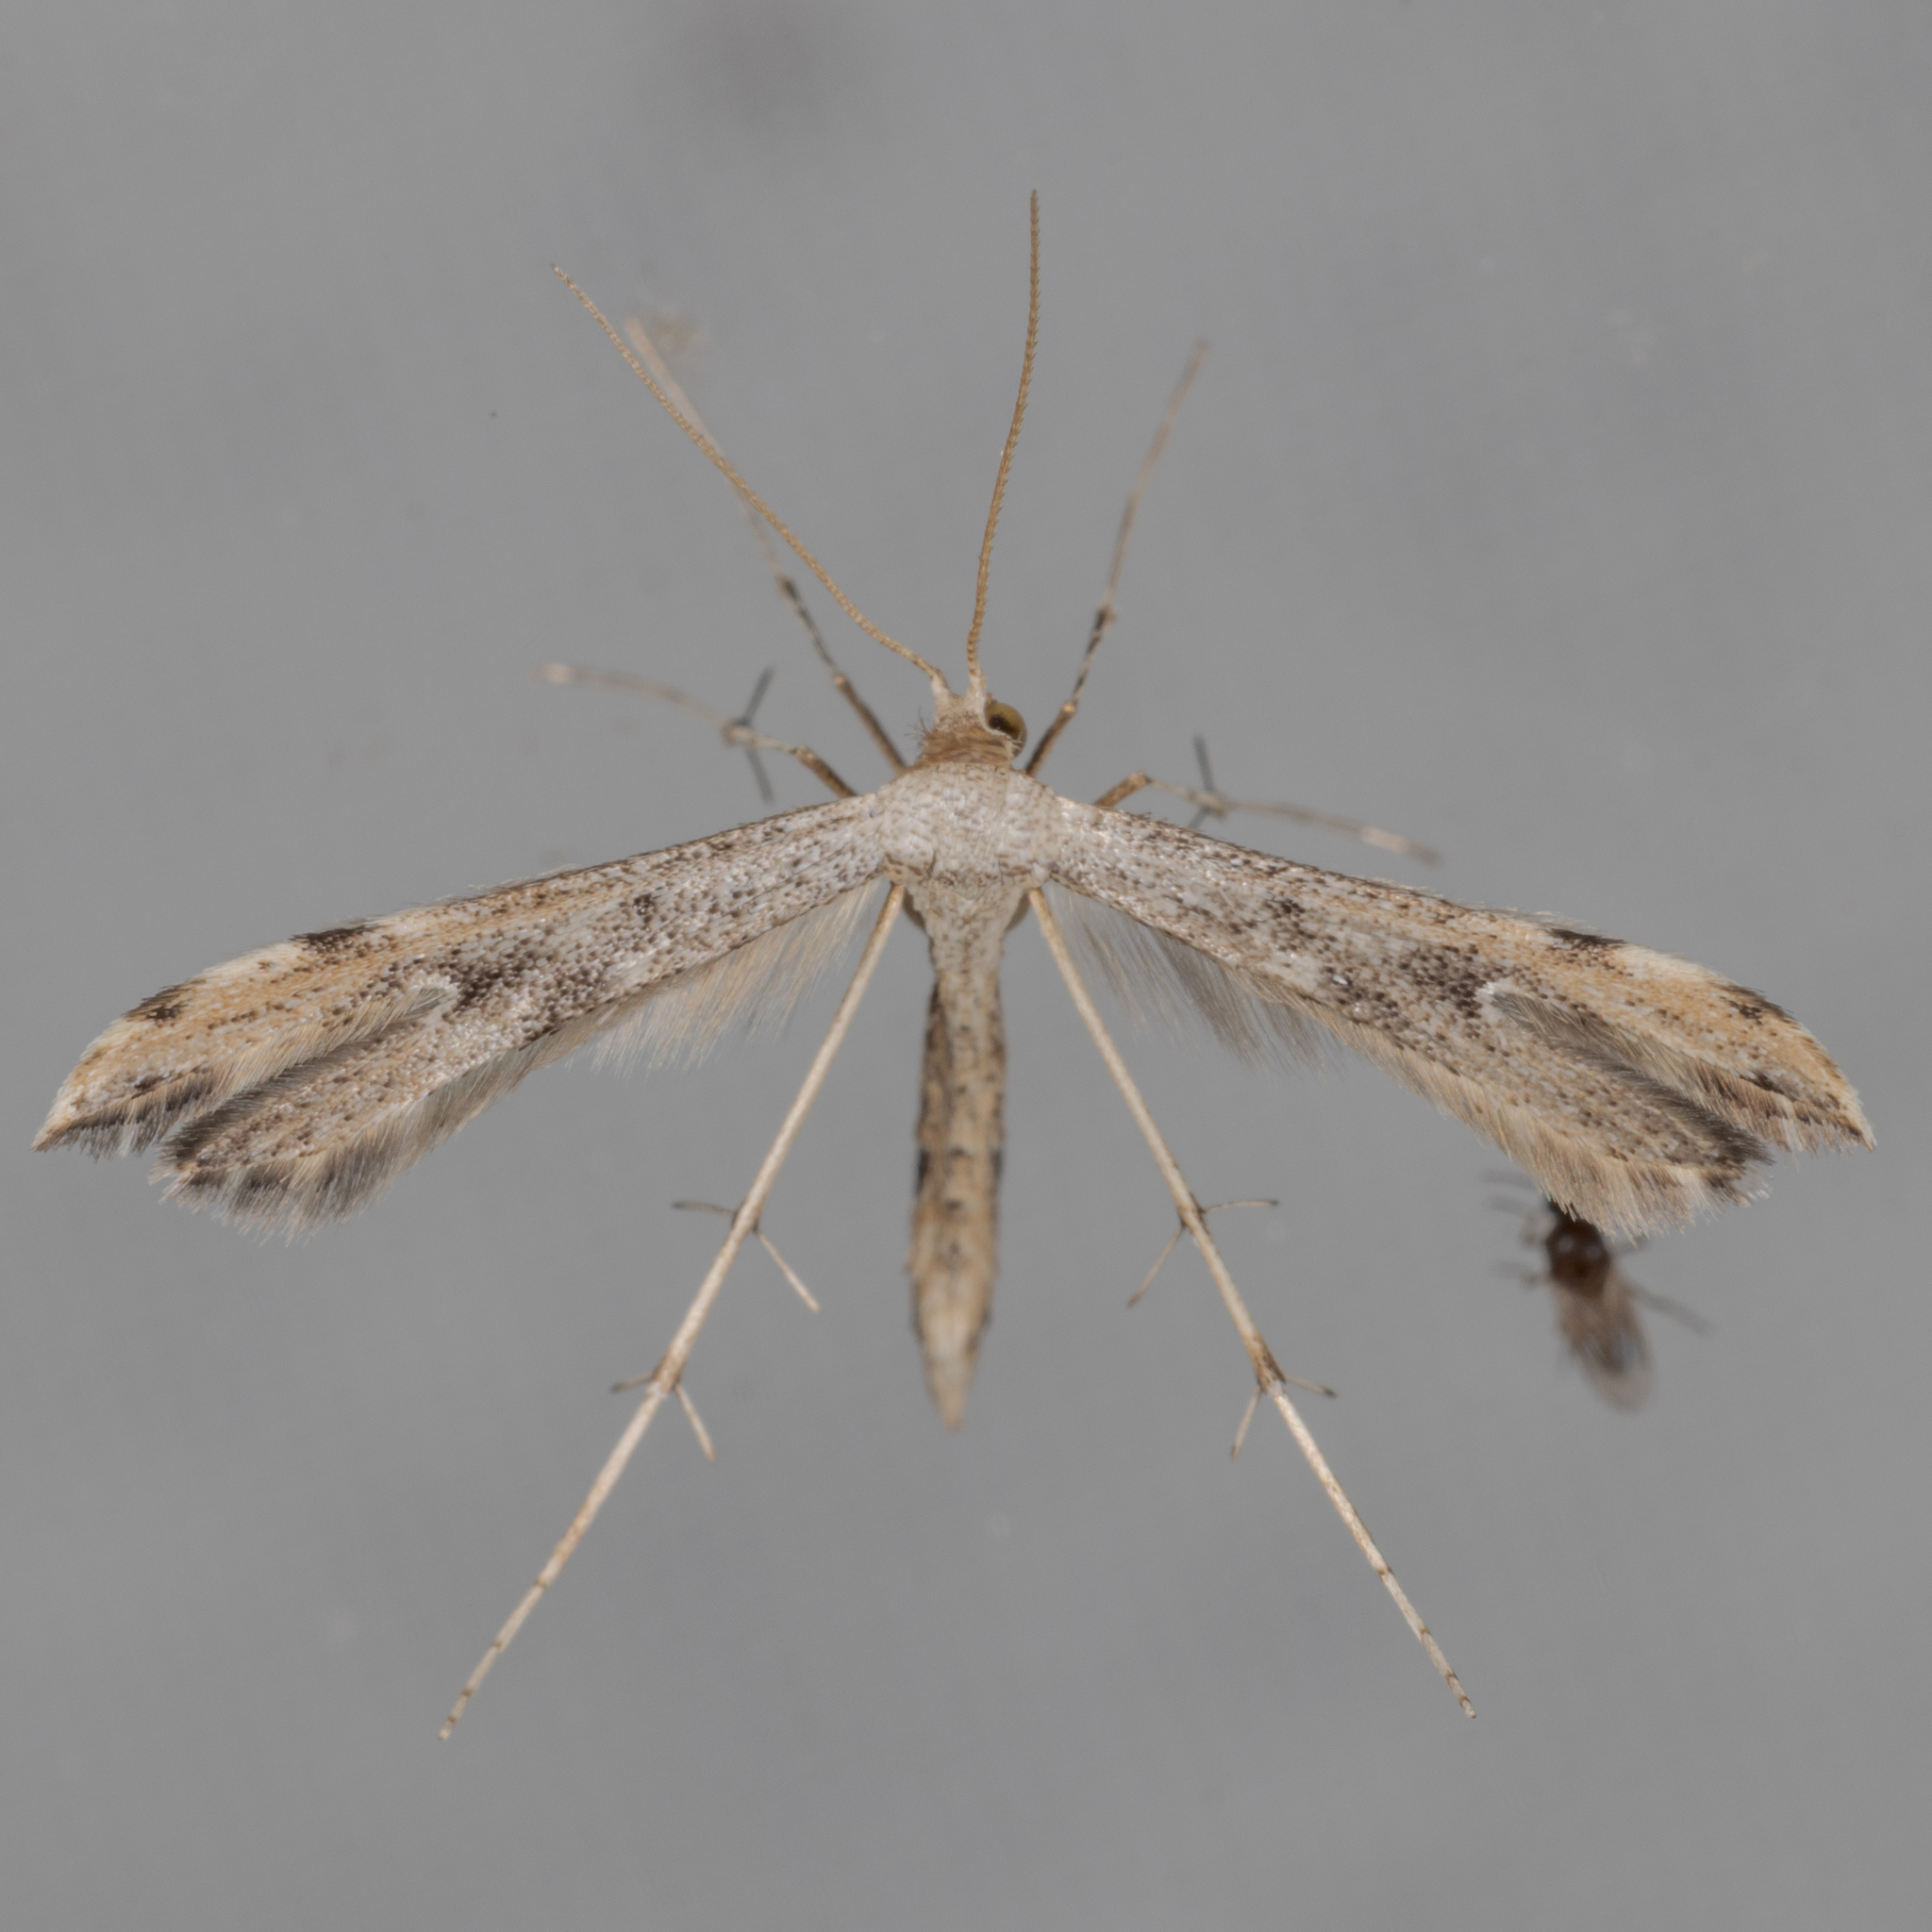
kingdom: Animalia
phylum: Arthropoda
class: Insecta
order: Lepidoptera
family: Pterophoridae
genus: Adaina
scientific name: Adaina ambrosiae
